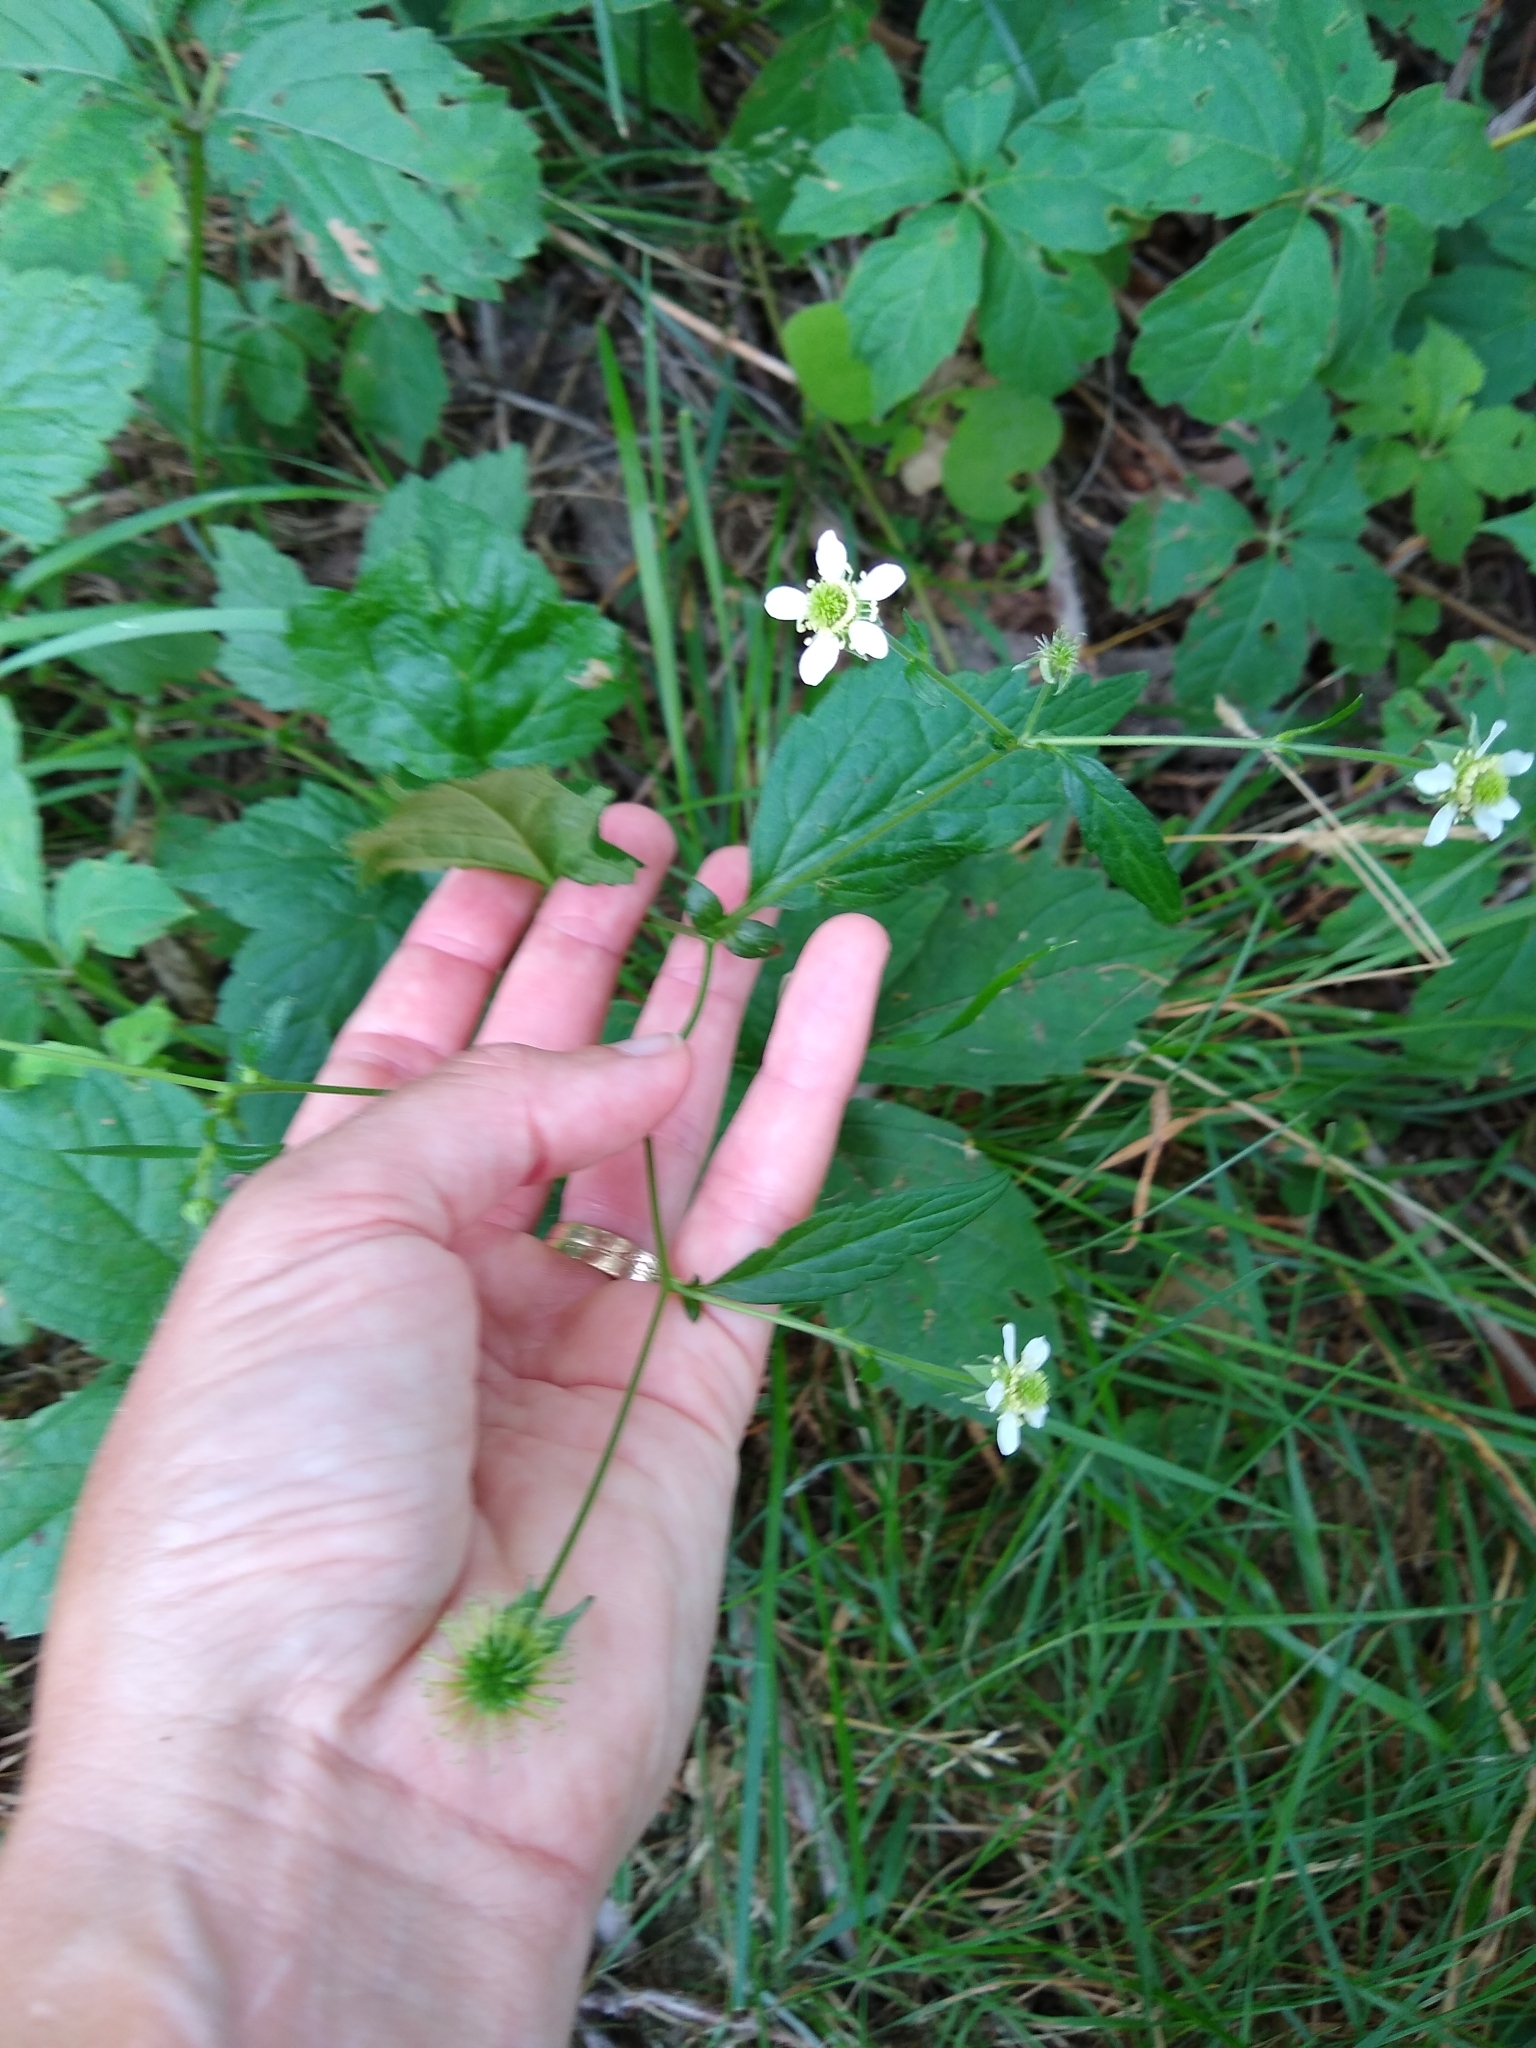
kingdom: Plantae
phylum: Tracheophyta
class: Magnoliopsida
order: Rosales
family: Rosaceae
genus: Geum
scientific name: Geum canadense
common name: White avens
